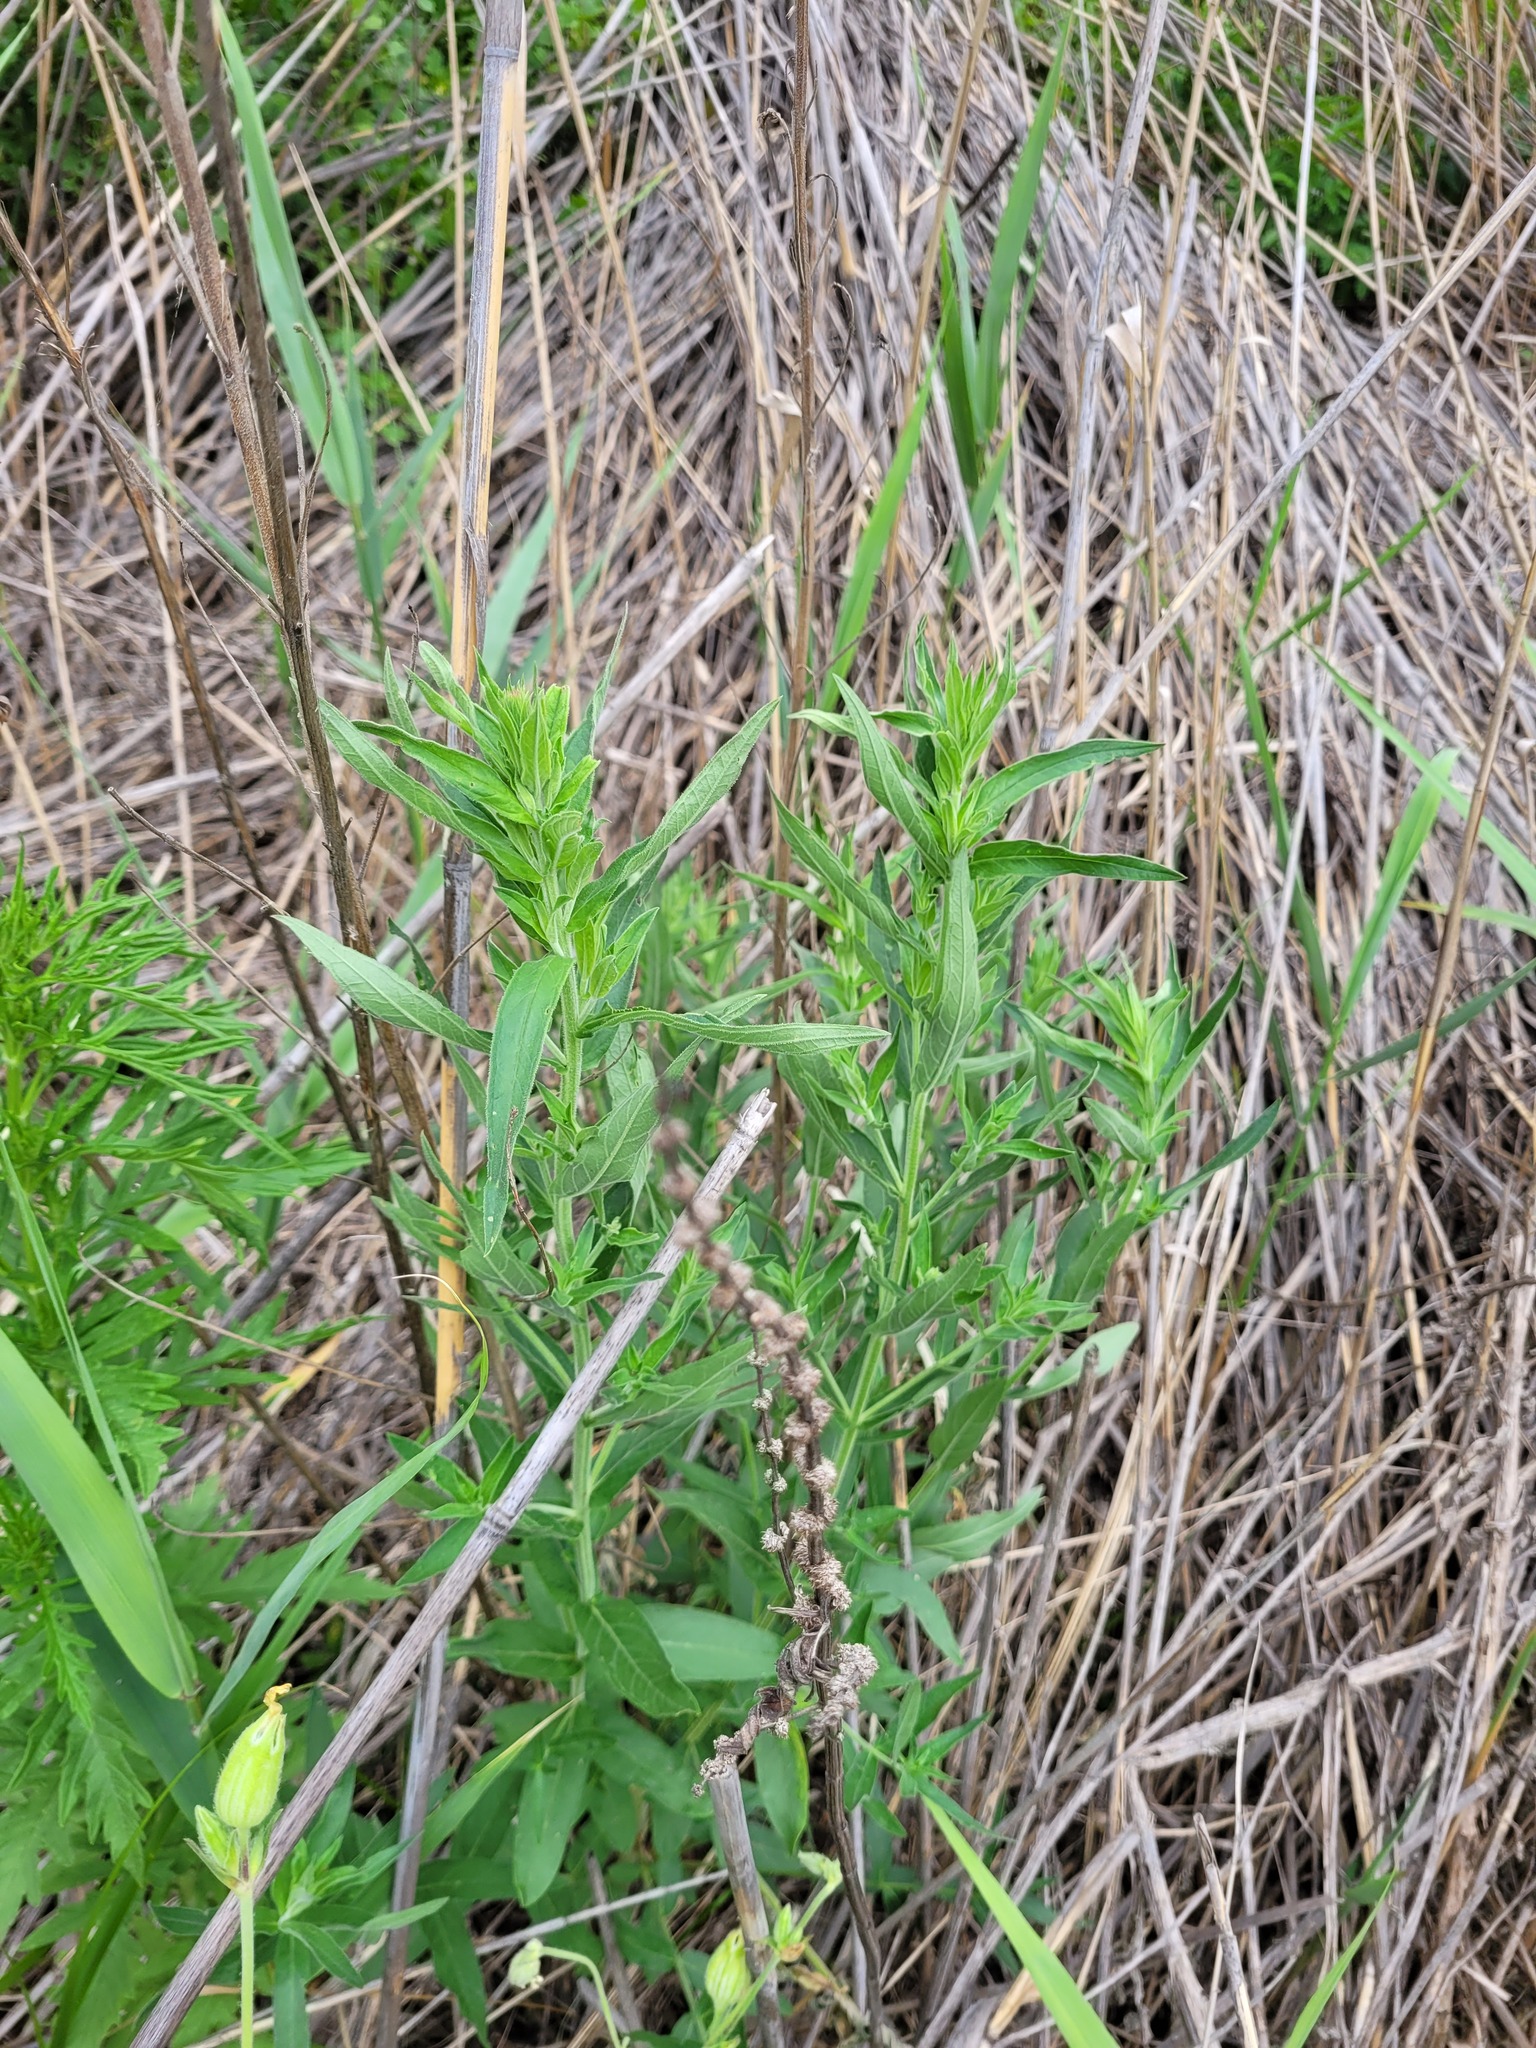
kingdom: Plantae
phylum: Tracheophyta
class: Magnoliopsida
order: Myrtales
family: Lythraceae
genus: Lythrum
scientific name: Lythrum salicaria
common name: Purple loosestrife
